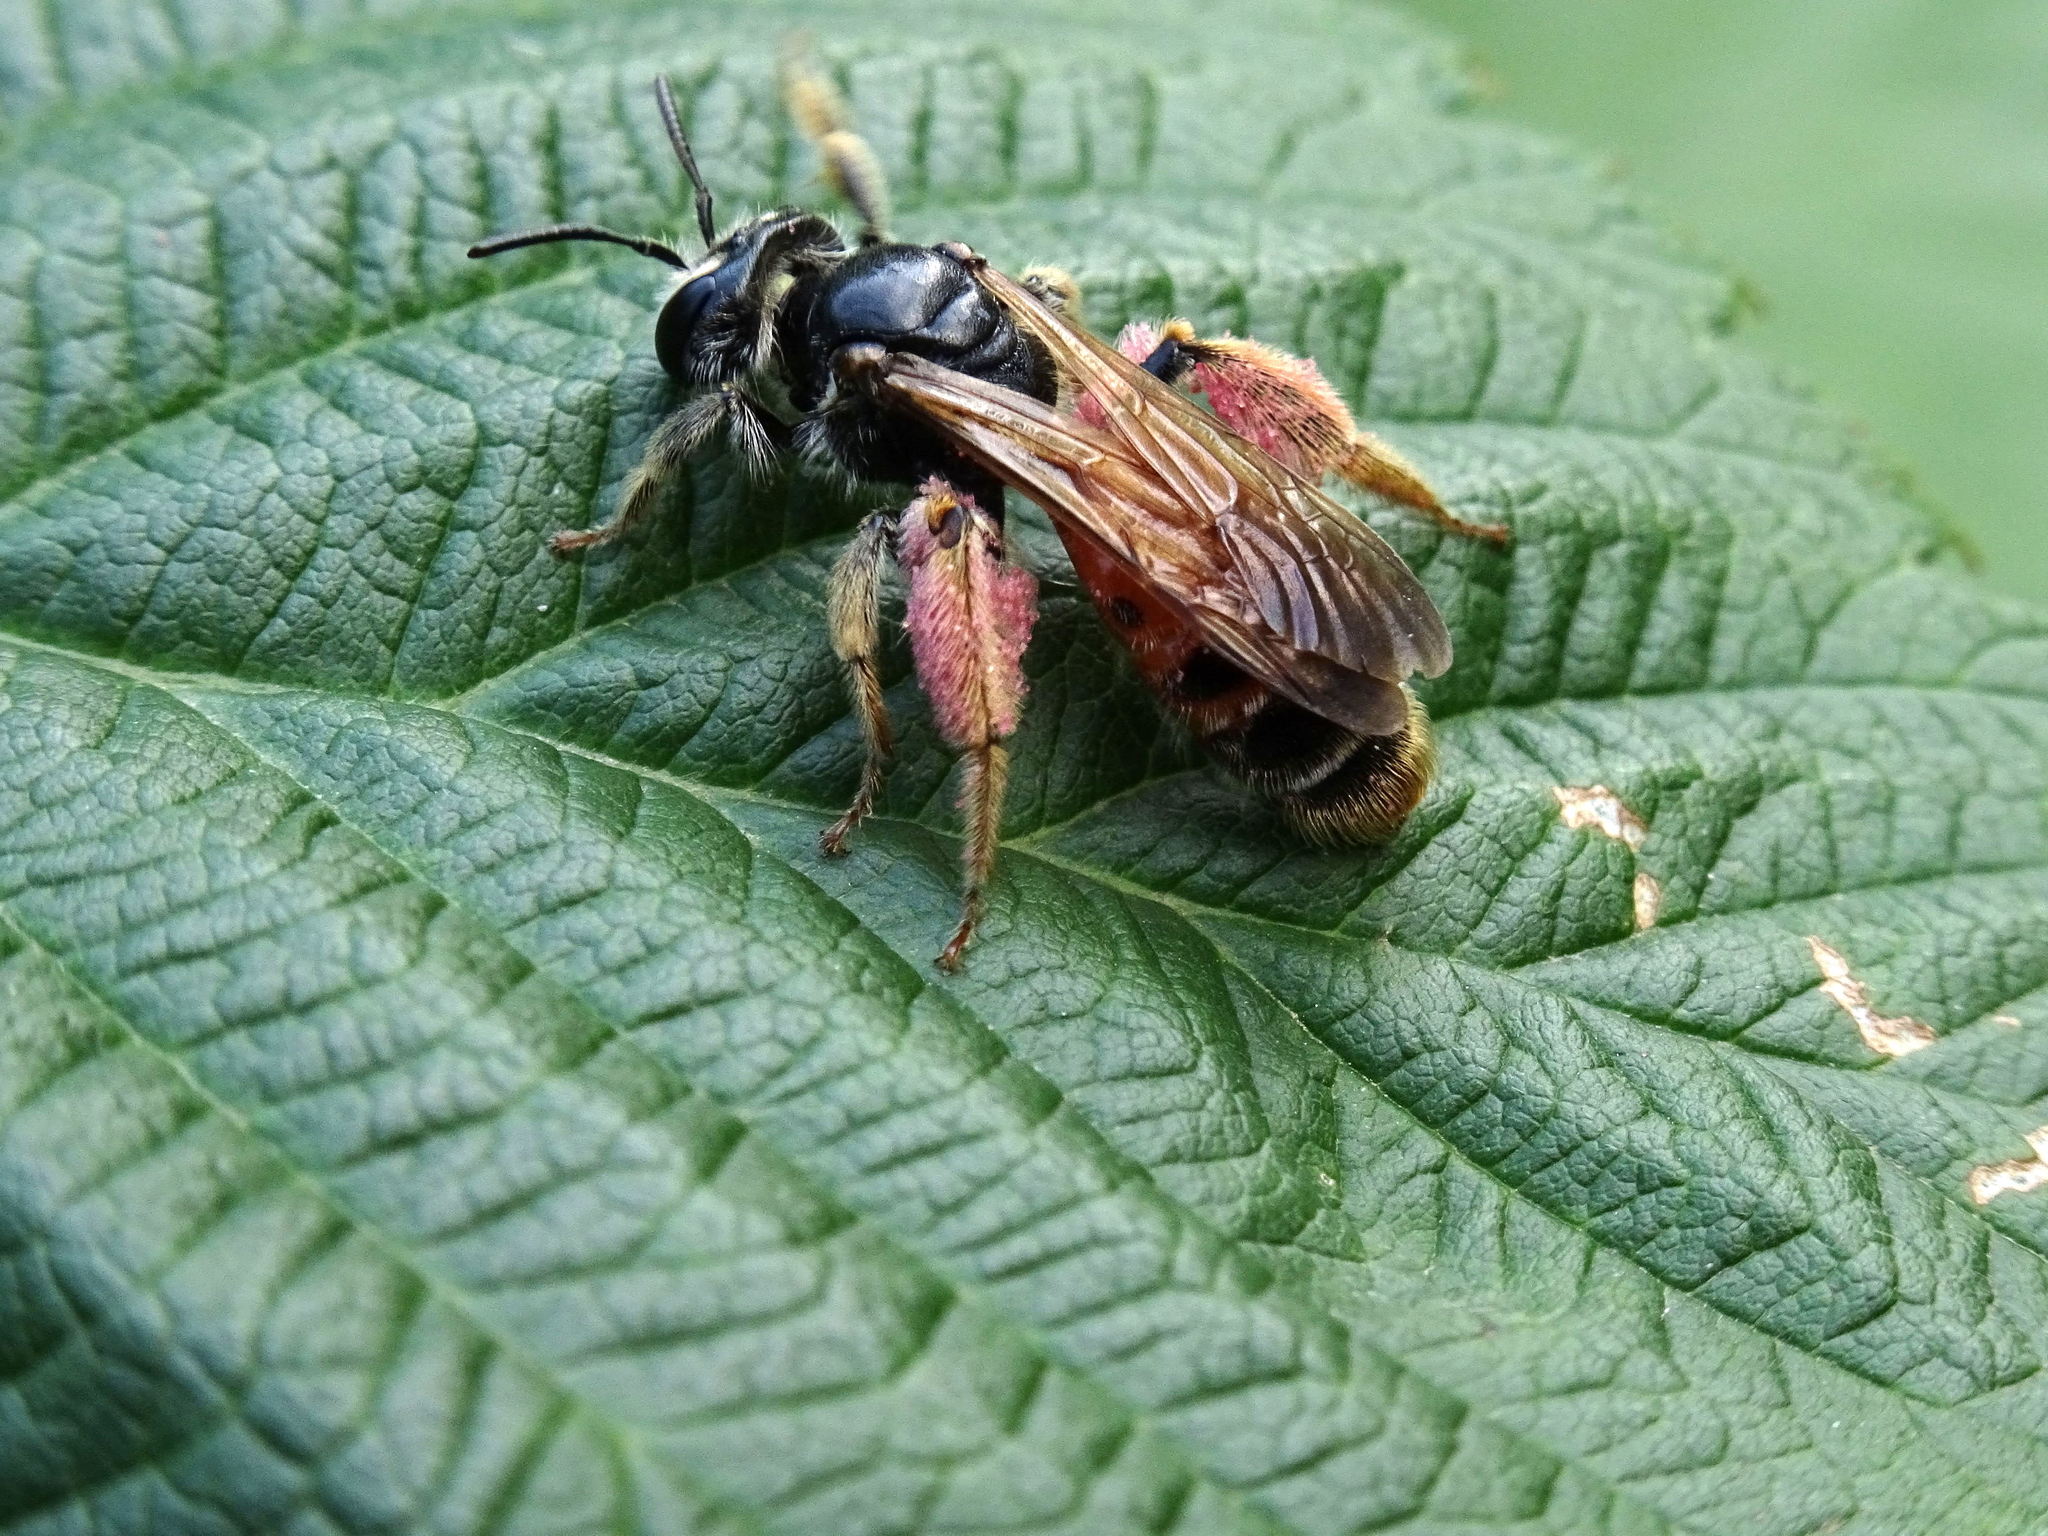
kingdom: Animalia
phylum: Arthropoda
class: Insecta
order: Hymenoptera
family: Andrenidae
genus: Andrena
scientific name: Andrena hattorfiana
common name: Large scabious mining bee
